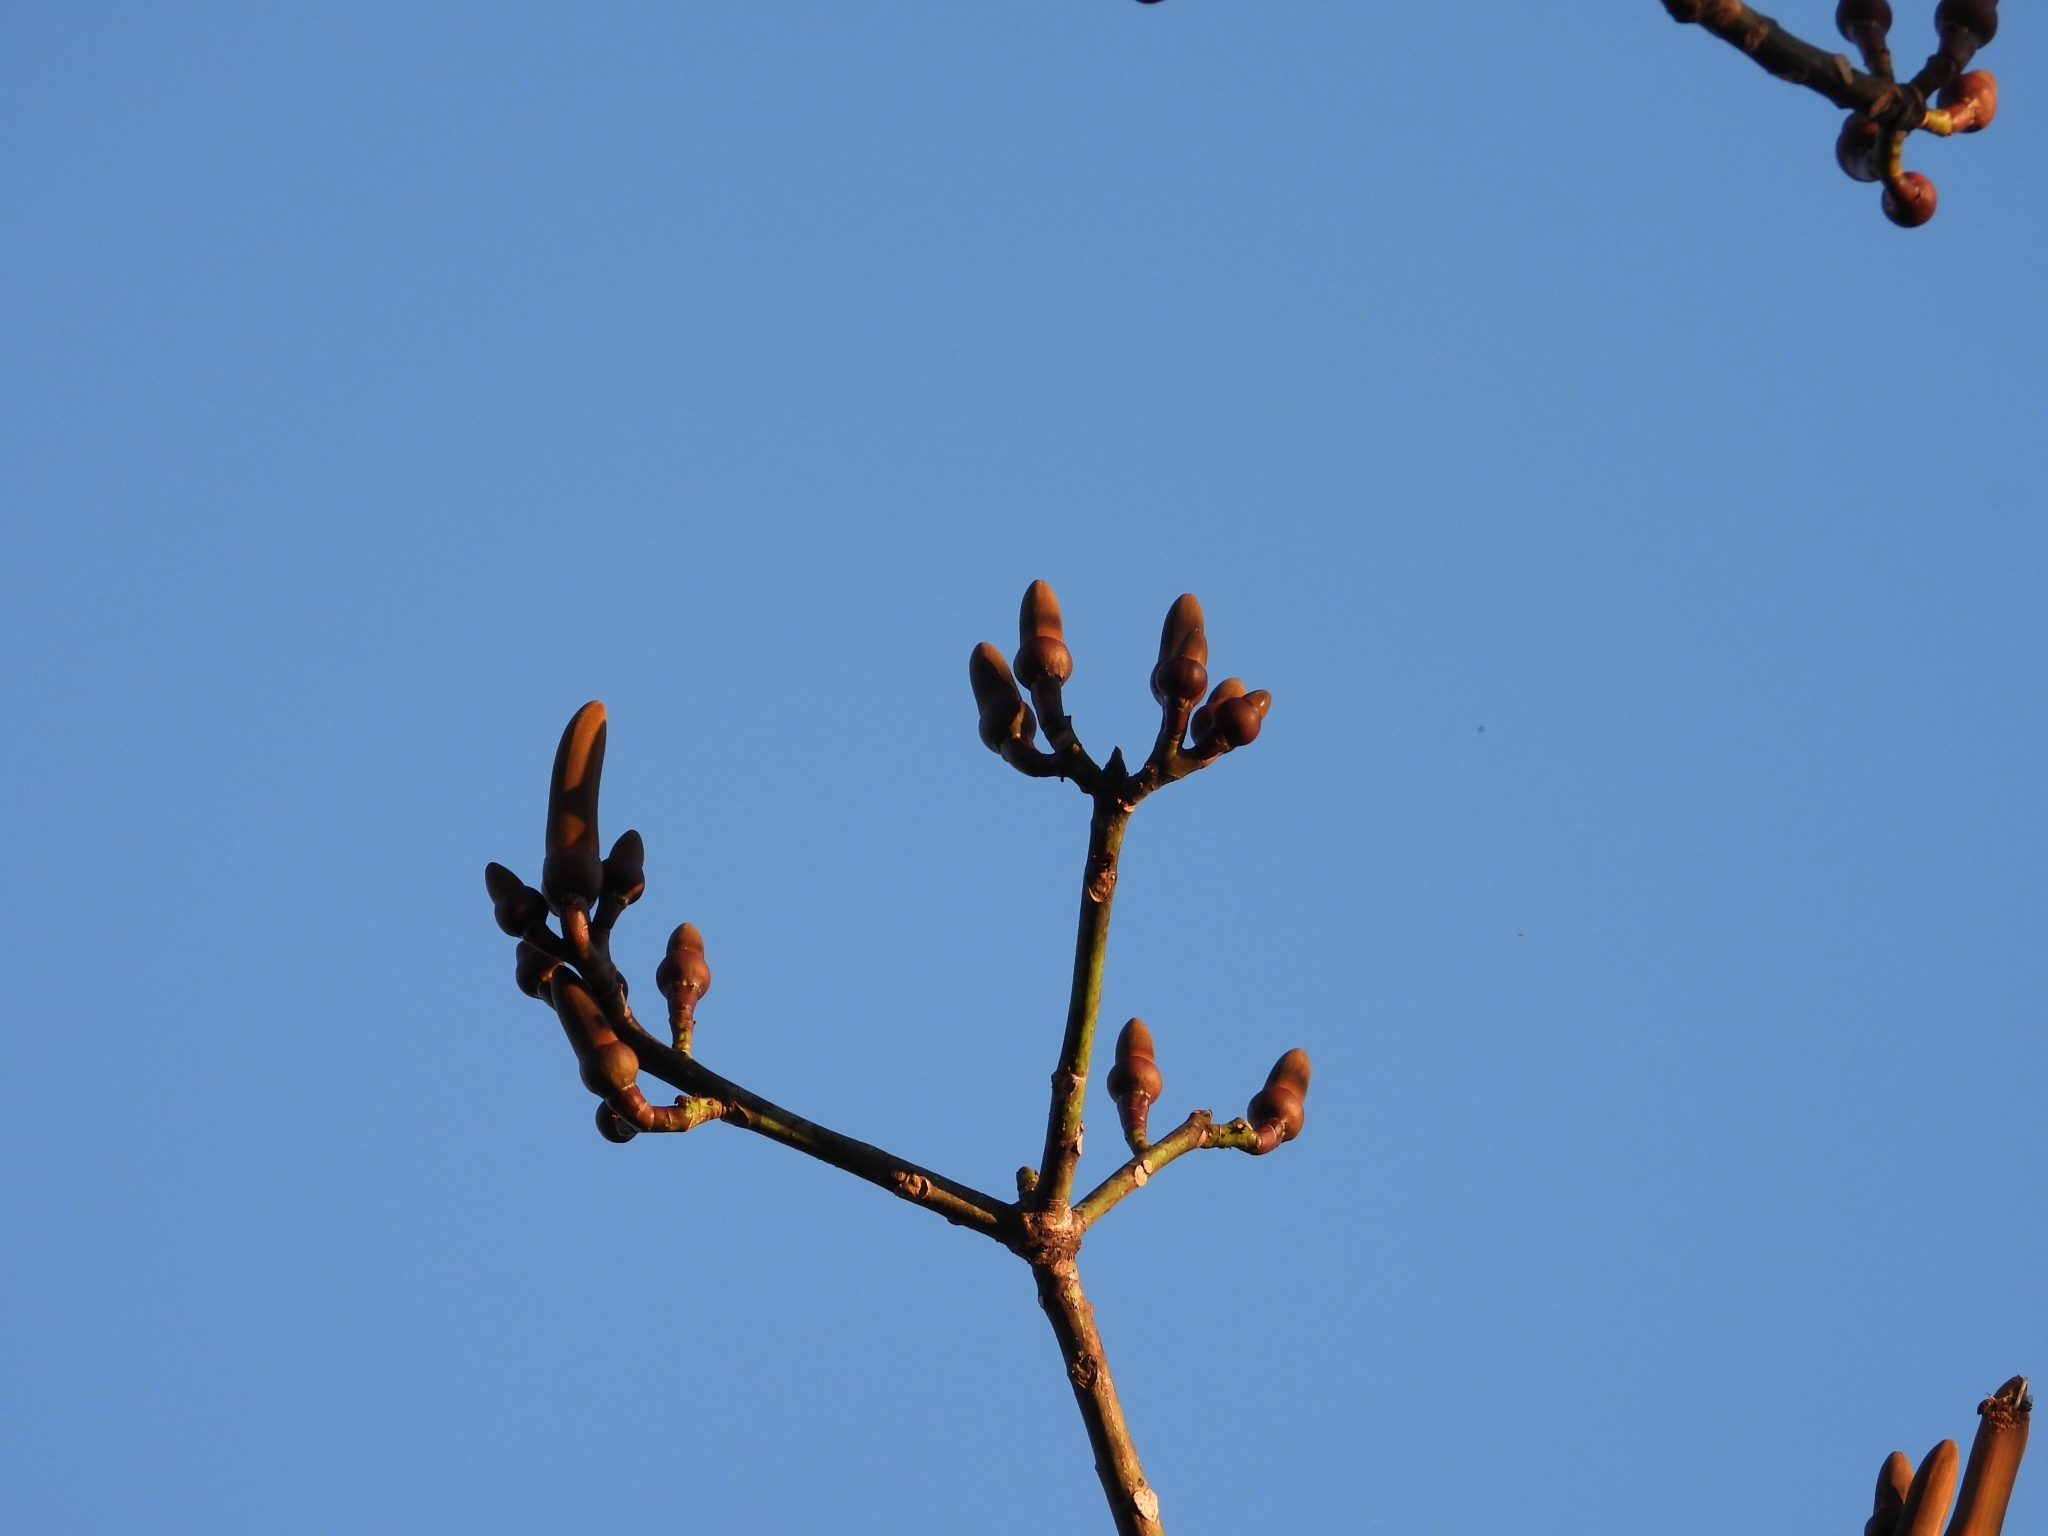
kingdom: Plantae
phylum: Tracheophyta
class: Magnoliopsida
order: Malvales
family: Malvaceae
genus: Pseudobombax
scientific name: Pseudobombax ellipticum
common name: Shaving-brush-tree
